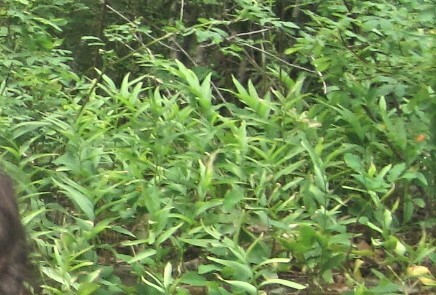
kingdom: Plantae
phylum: Tracheophyta
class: Liliopsida
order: Asparagales
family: Asparagaceae
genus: Maianthemum
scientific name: Maianthemum stellatum
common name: Little false solomon's seal
